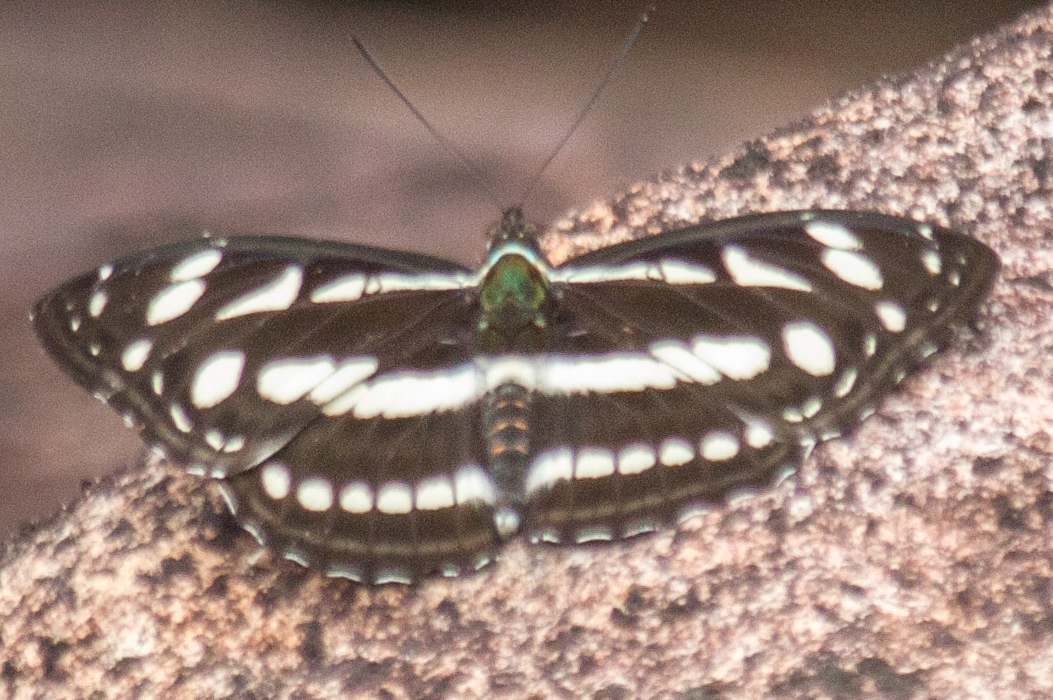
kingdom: Animalia
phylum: Arthropoda
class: Insecta
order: Lepidoptera
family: Nymphalidae
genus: Pantoporia
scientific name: Pantoporia larymna
